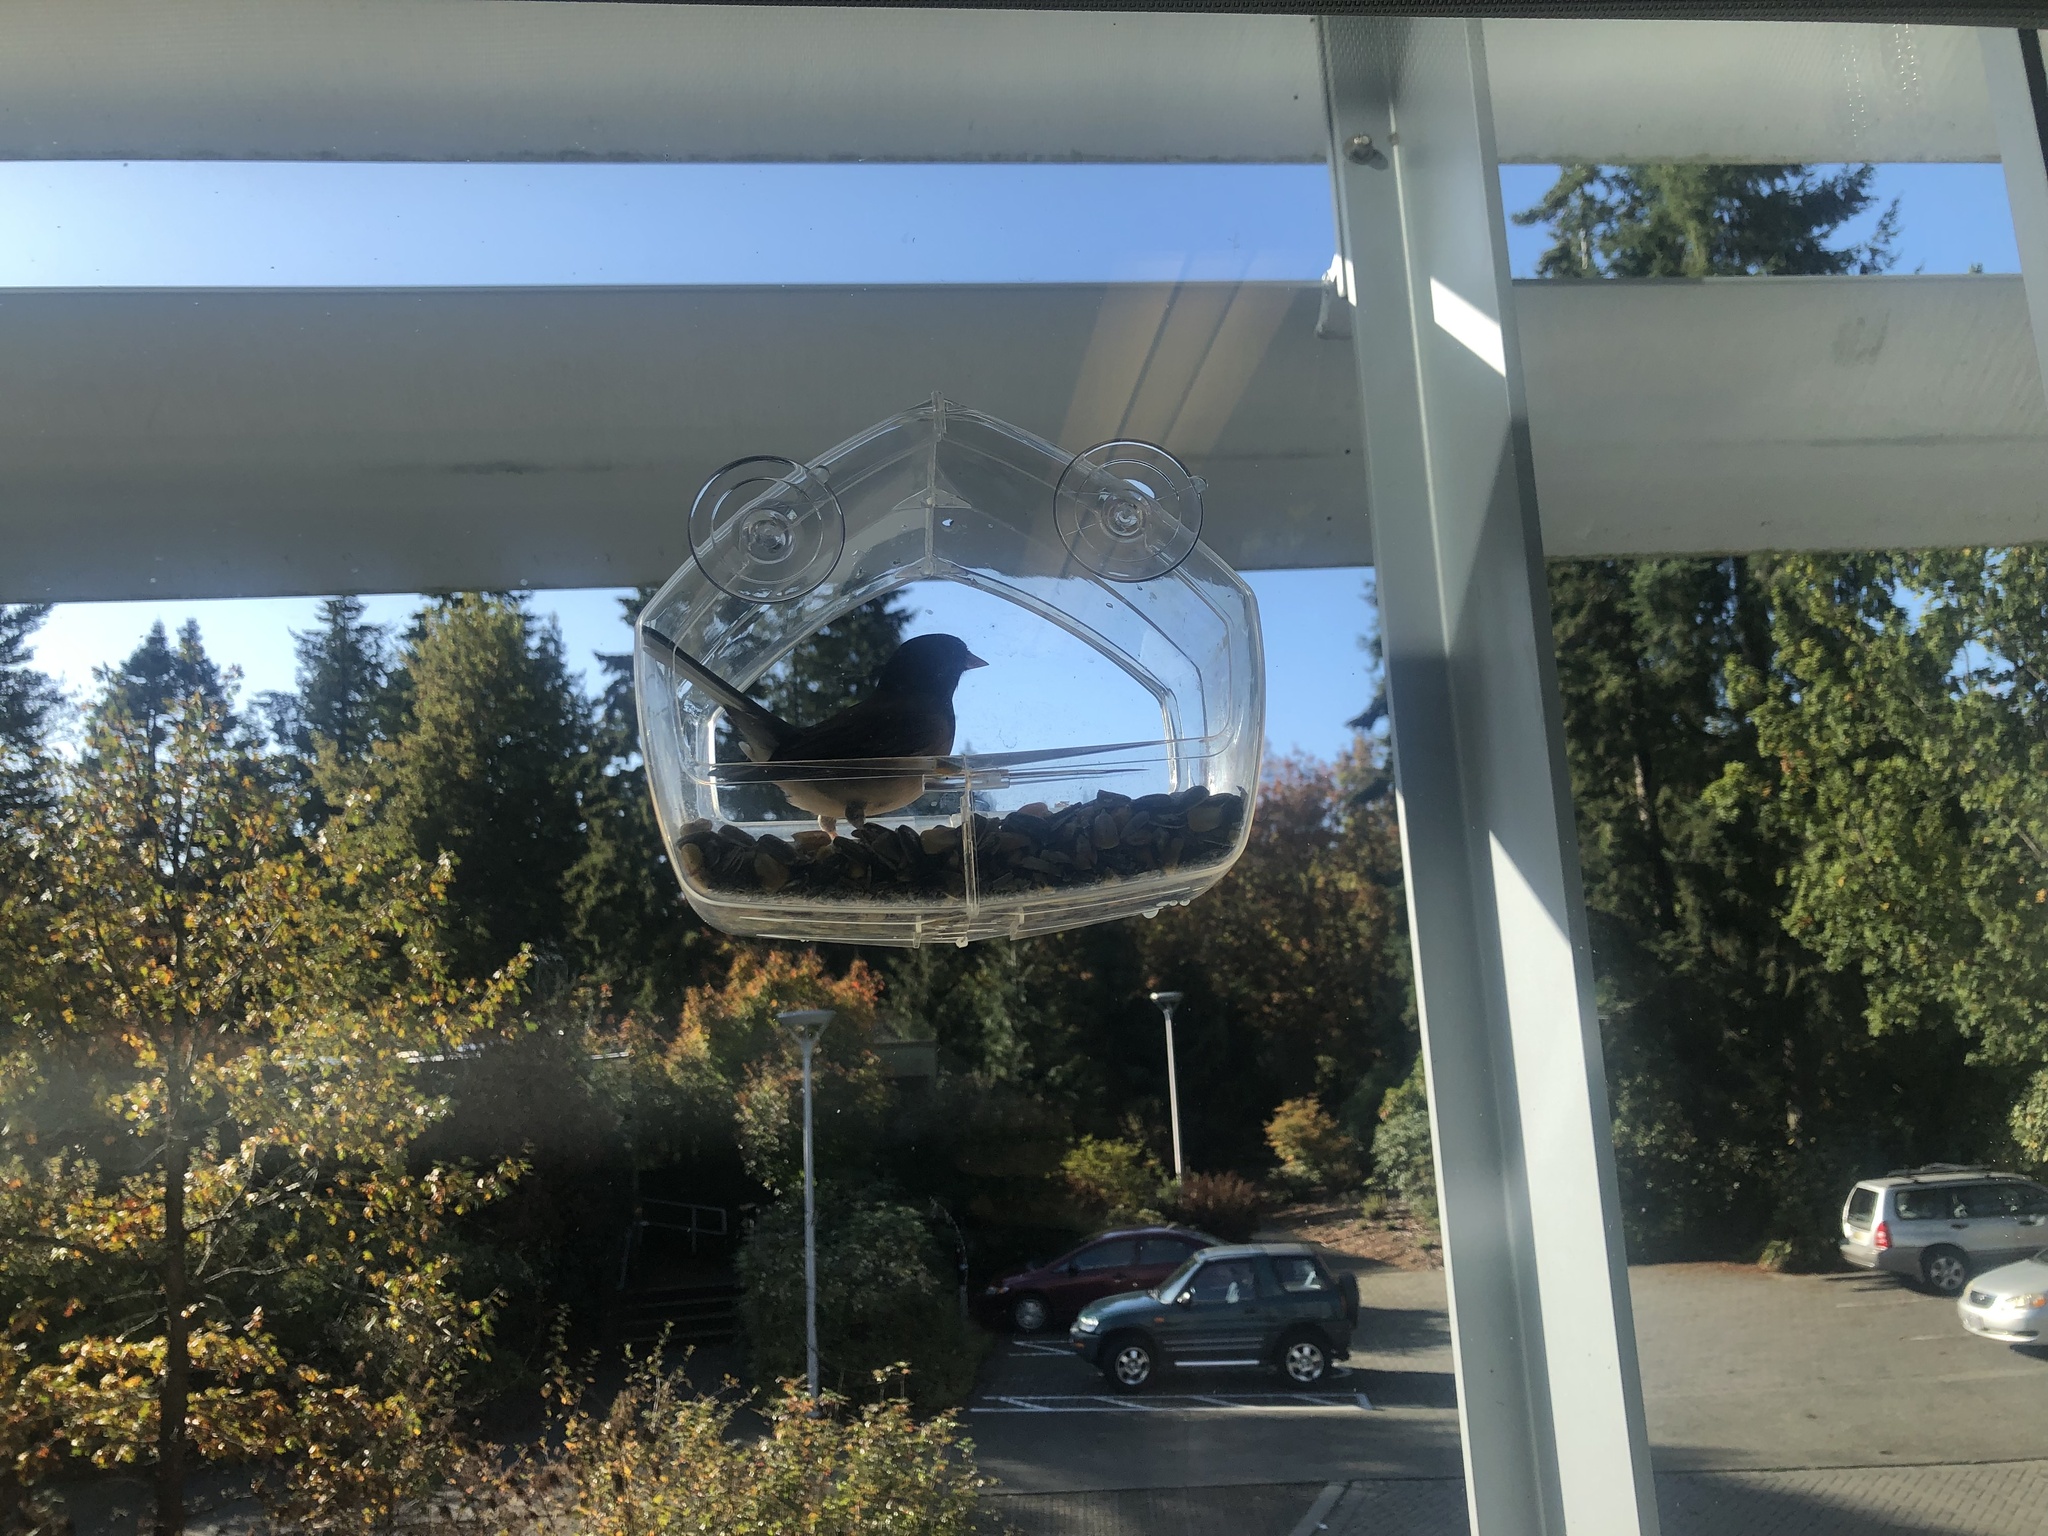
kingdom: Animalia
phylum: Chordata
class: Aves
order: Passeriformes
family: Passerellidae
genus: Junco
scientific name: Junco hyemalis
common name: Dark-eyed junco
